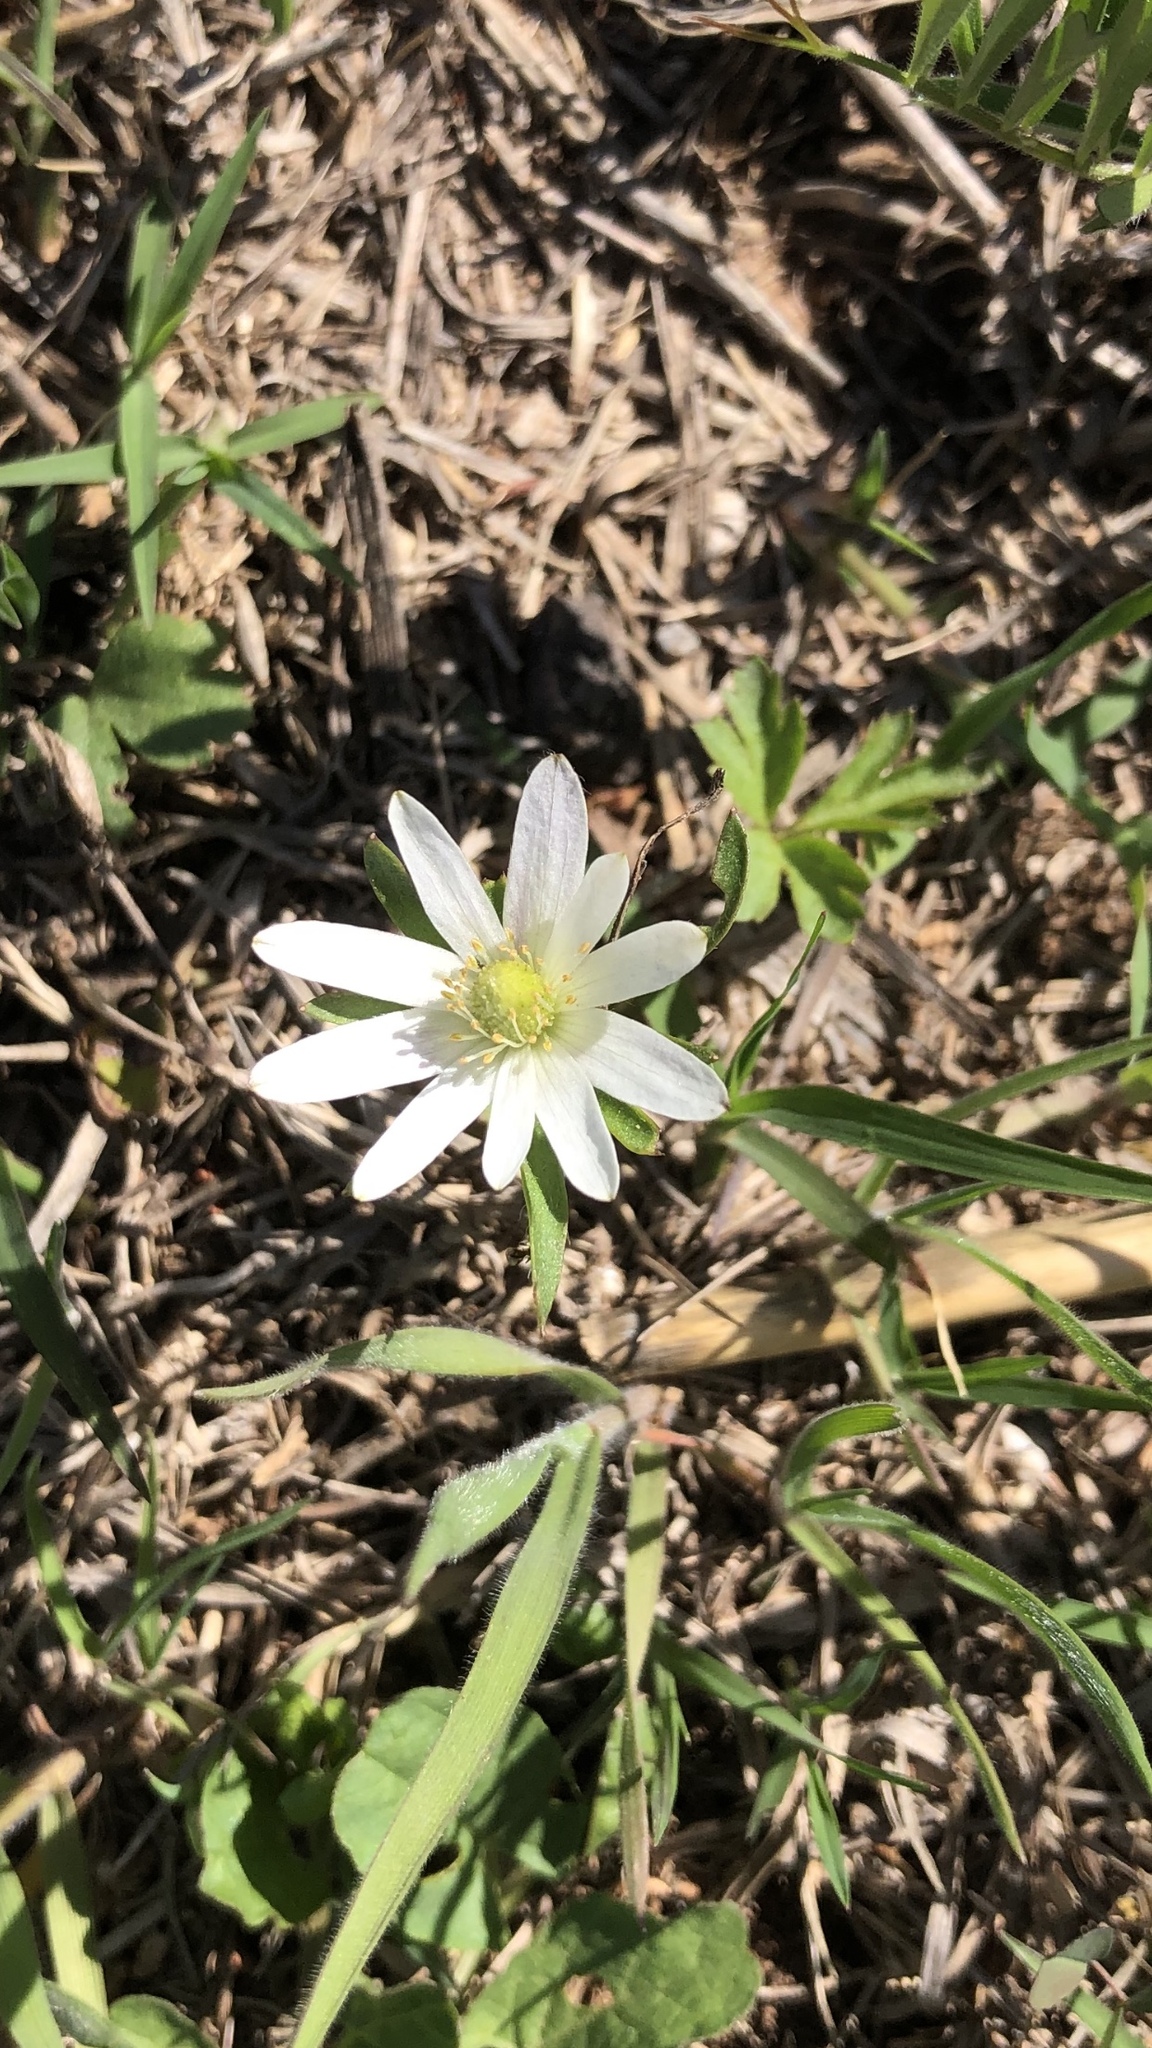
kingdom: Plantae
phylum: Tracheophyta
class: Magnoliopsida
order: Ranunculales
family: Ranunculaceae
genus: Anemone
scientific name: Anemone berlandieri
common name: Ten-petal anemone
